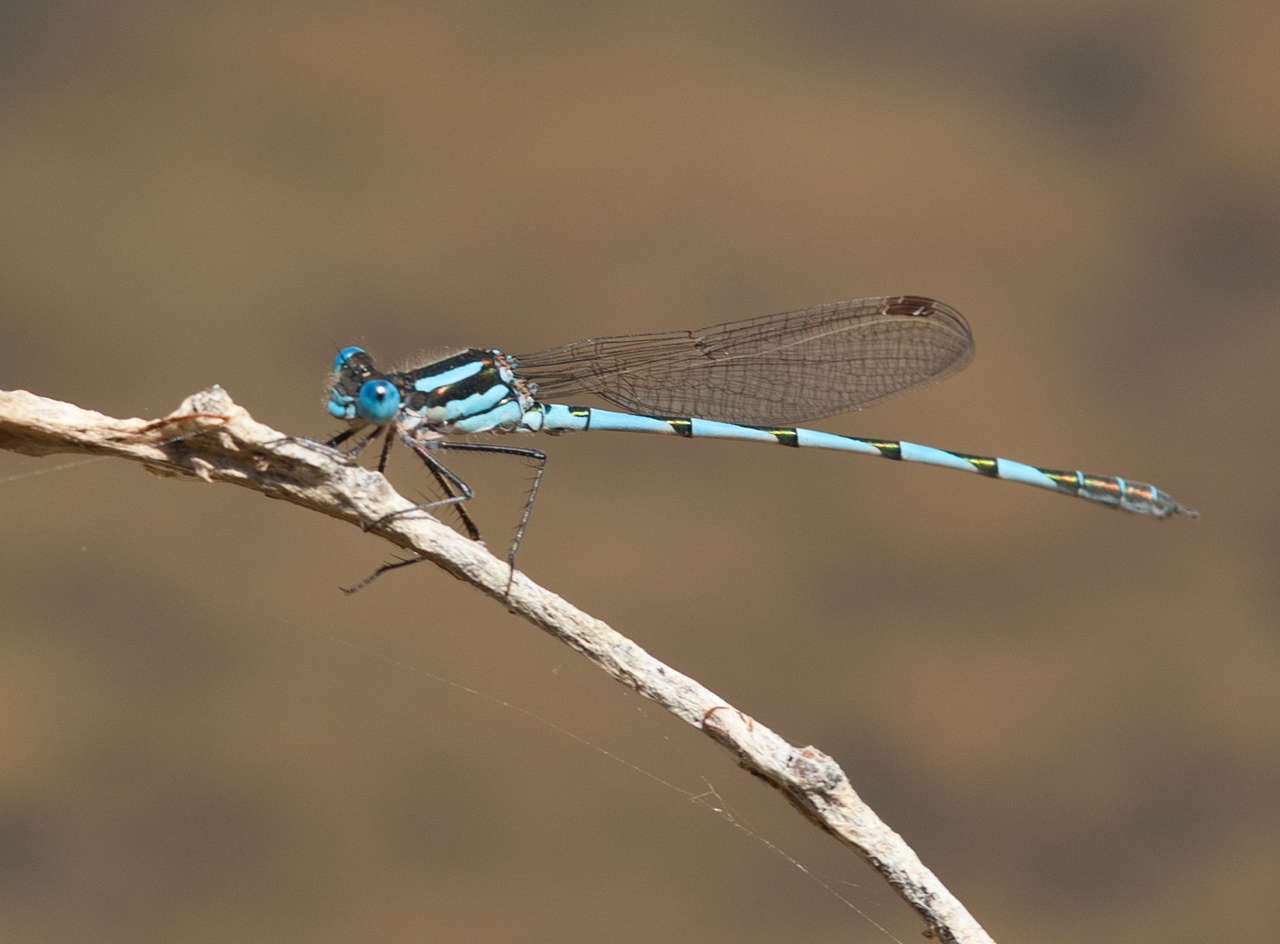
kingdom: Animalia
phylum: Arthropoda
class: Insecta
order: Odonata
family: Lestidae
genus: Austrolestes
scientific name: Austrolestes annulosus
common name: Blue ringtail
